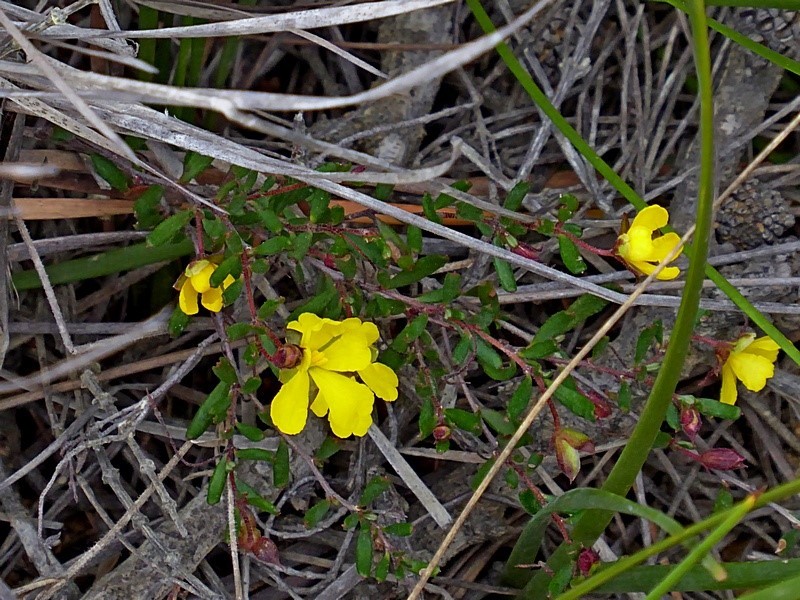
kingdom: Plantae
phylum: Tracheophyta
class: Magnoliopsida
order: Dilleniales
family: Dilleniaceae
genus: Hibbertia
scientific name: Hibbertia empetrifolia
